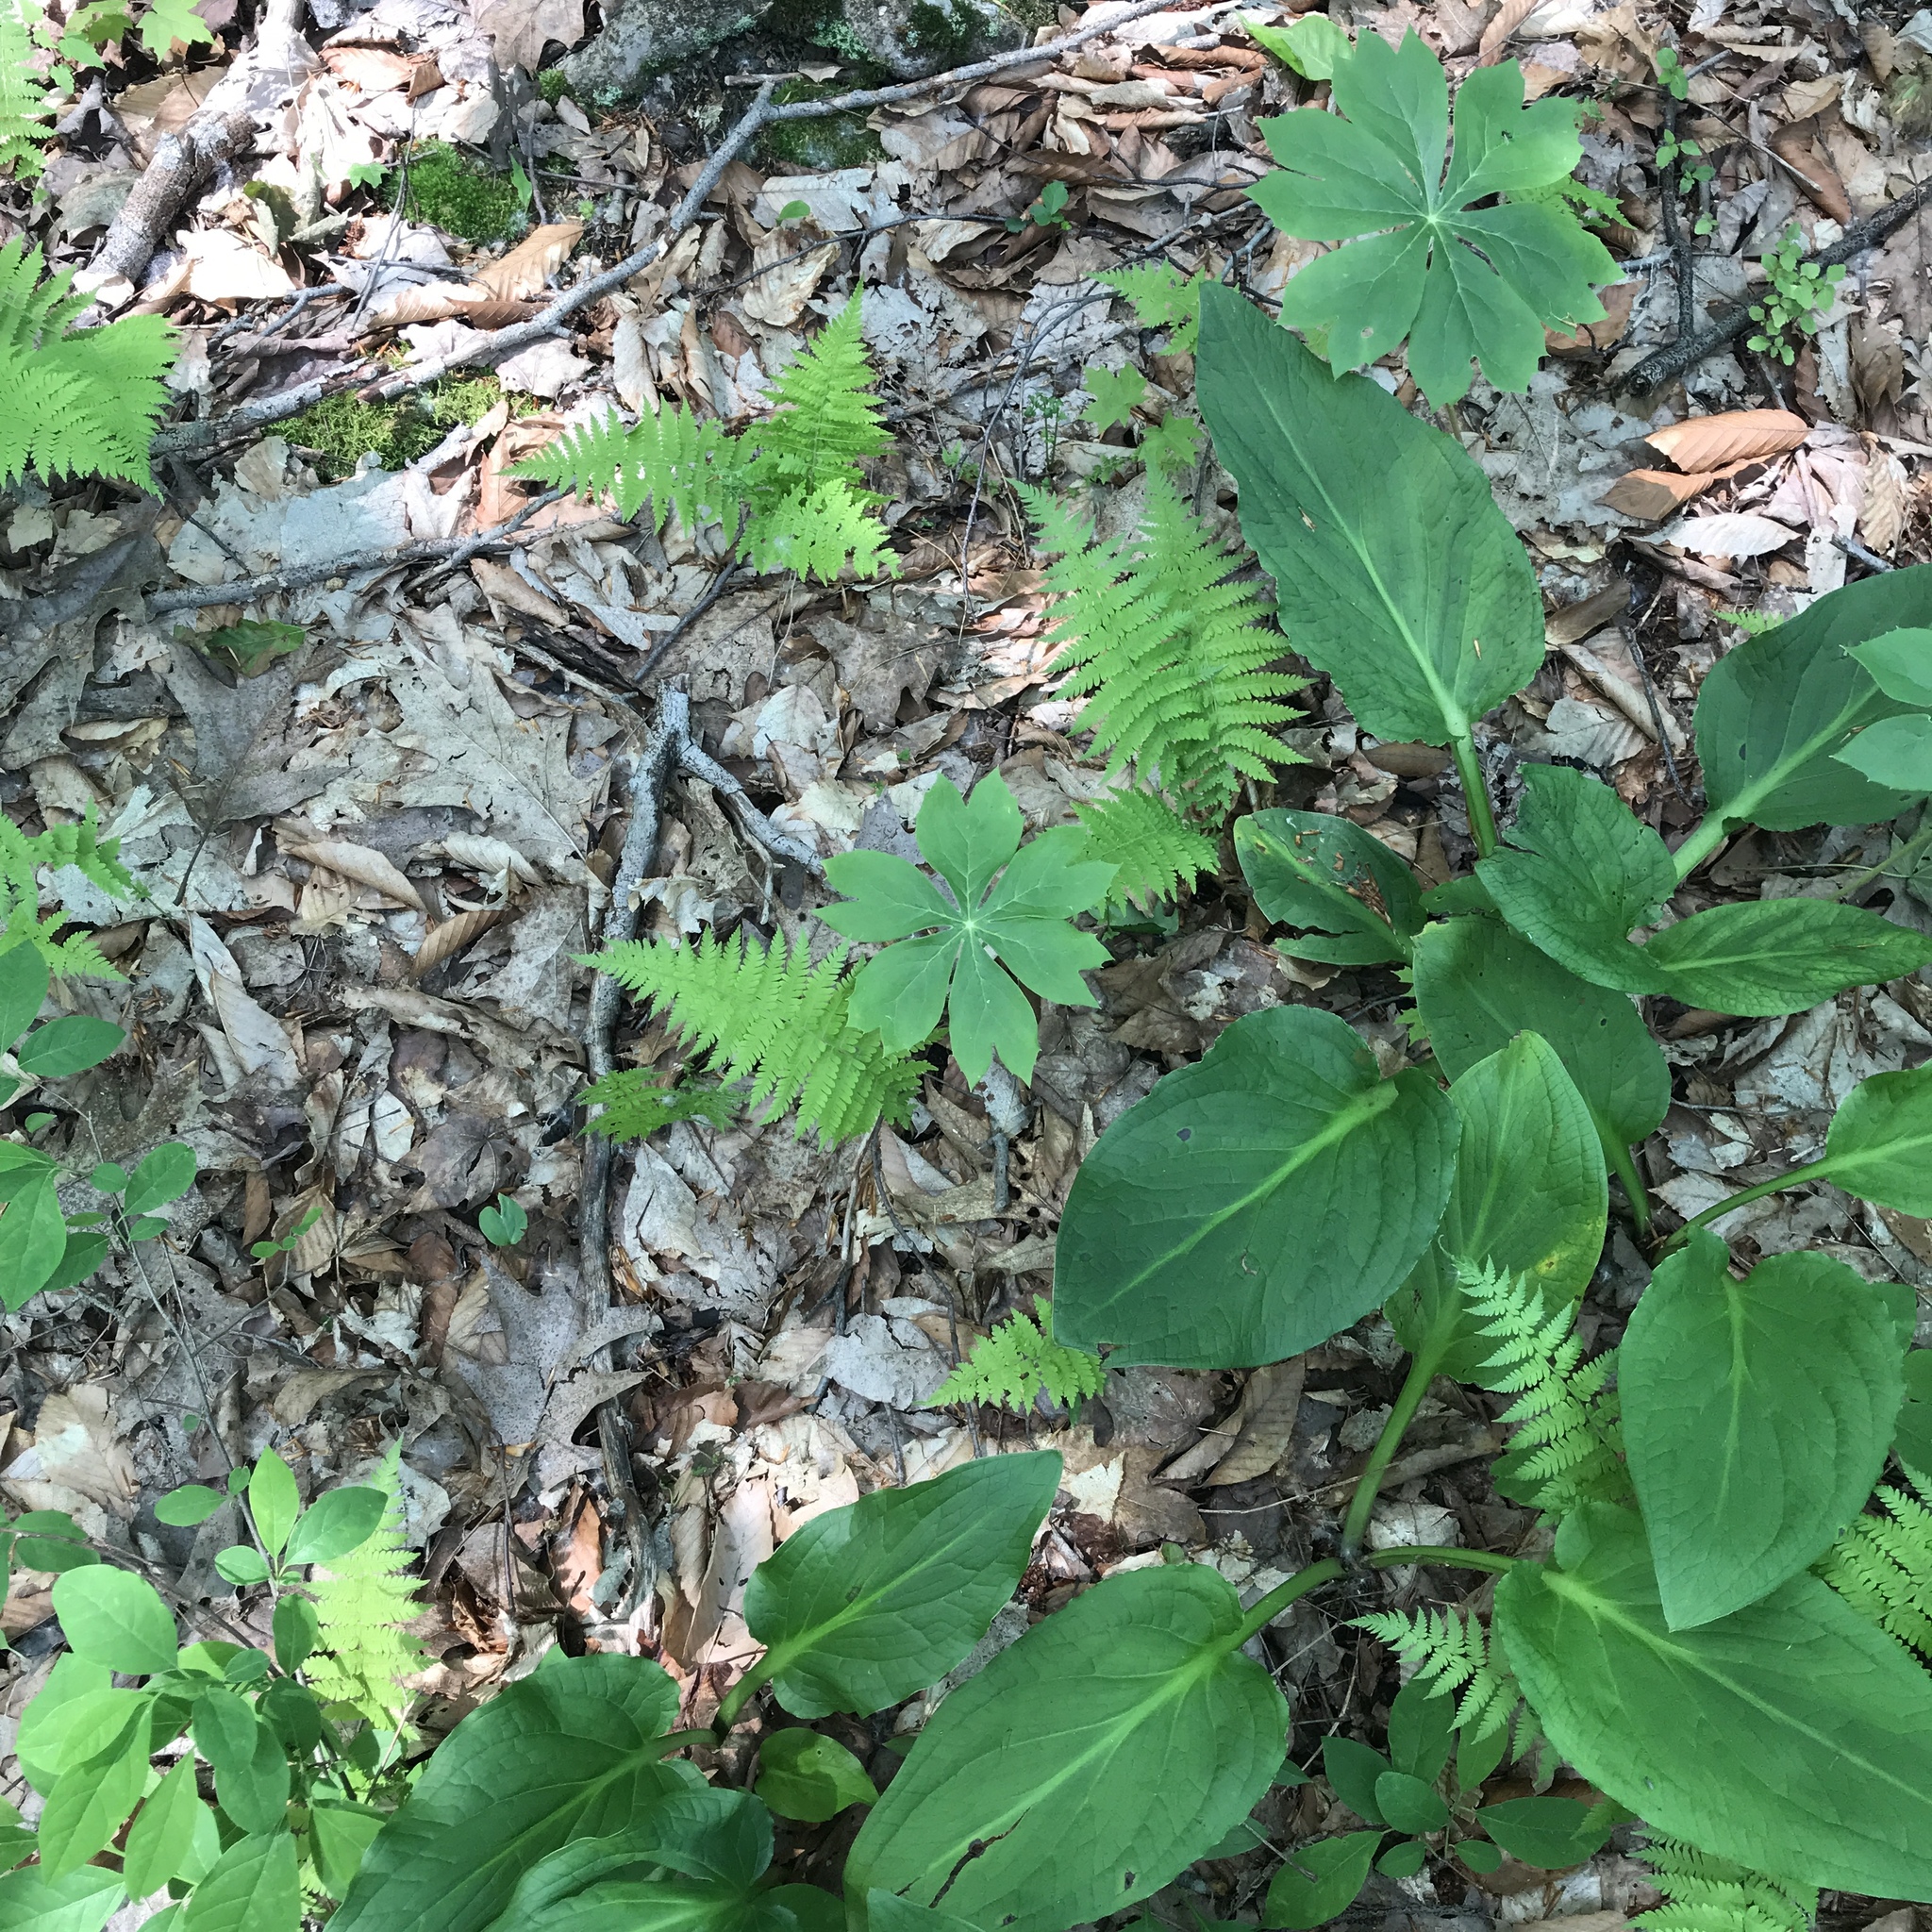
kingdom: Plantae
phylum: Tracheophyta
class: Polypodiopsida
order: Polypodiales
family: Thelypteridaceae
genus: Amauropelta
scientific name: Amauropelta noveboracensis
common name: New york fern
